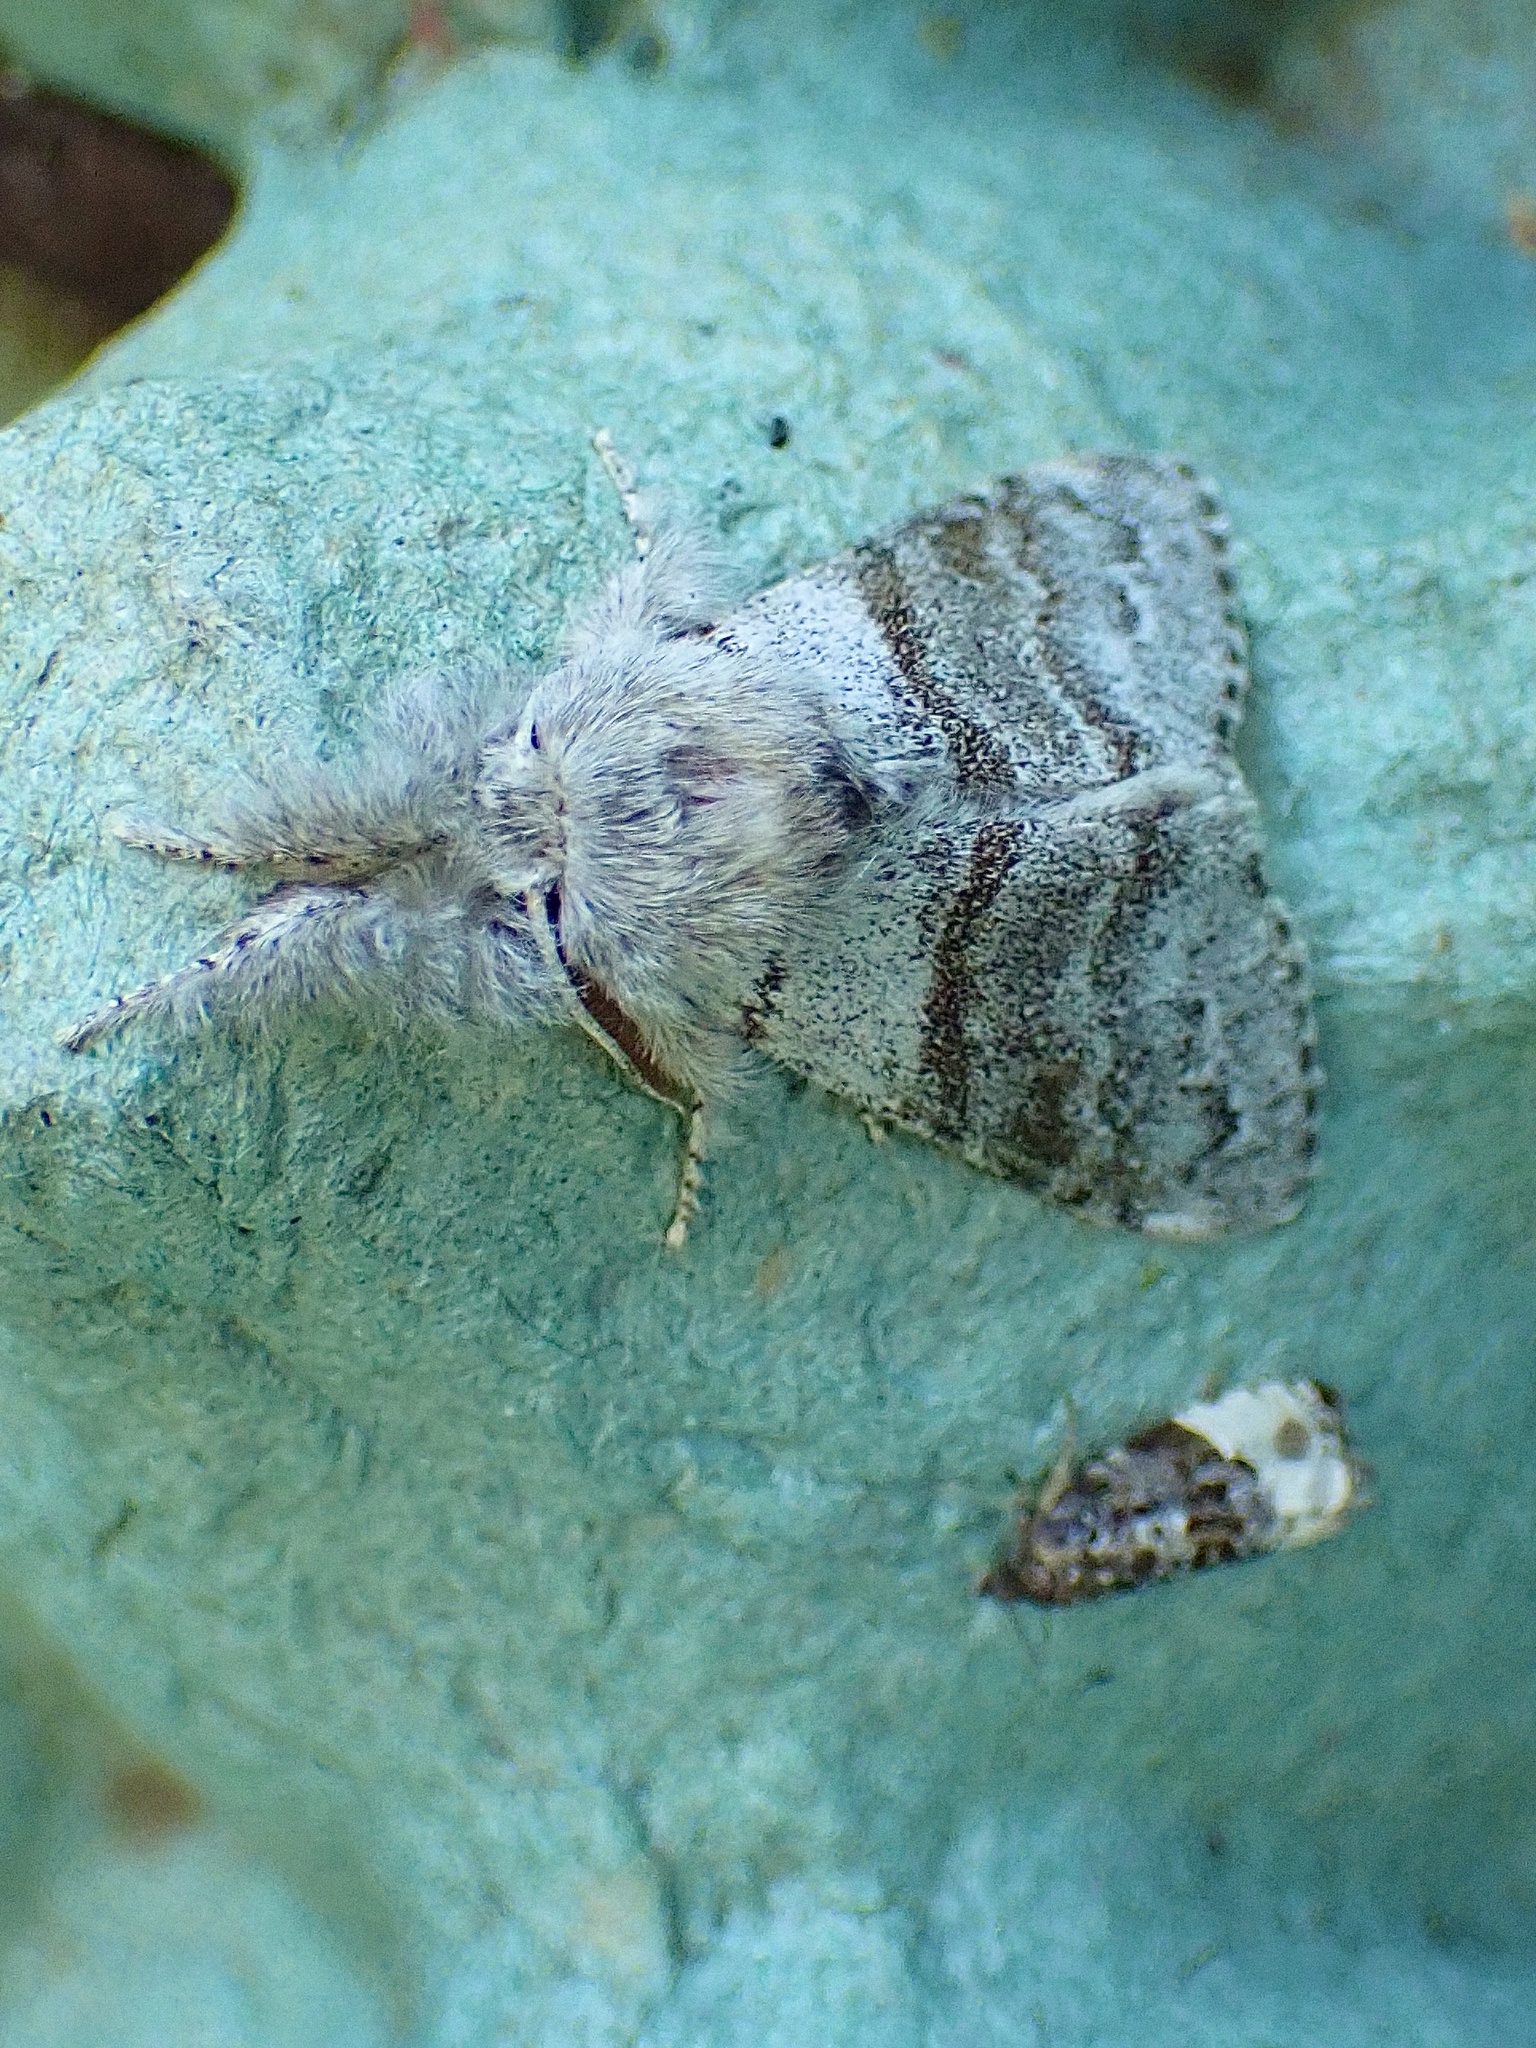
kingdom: Animalia
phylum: Arthropoda
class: Insecta
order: Lepidoptera
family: Erebidae
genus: Calliteara
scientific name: Calliteara pudibunda
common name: Pale tussock
